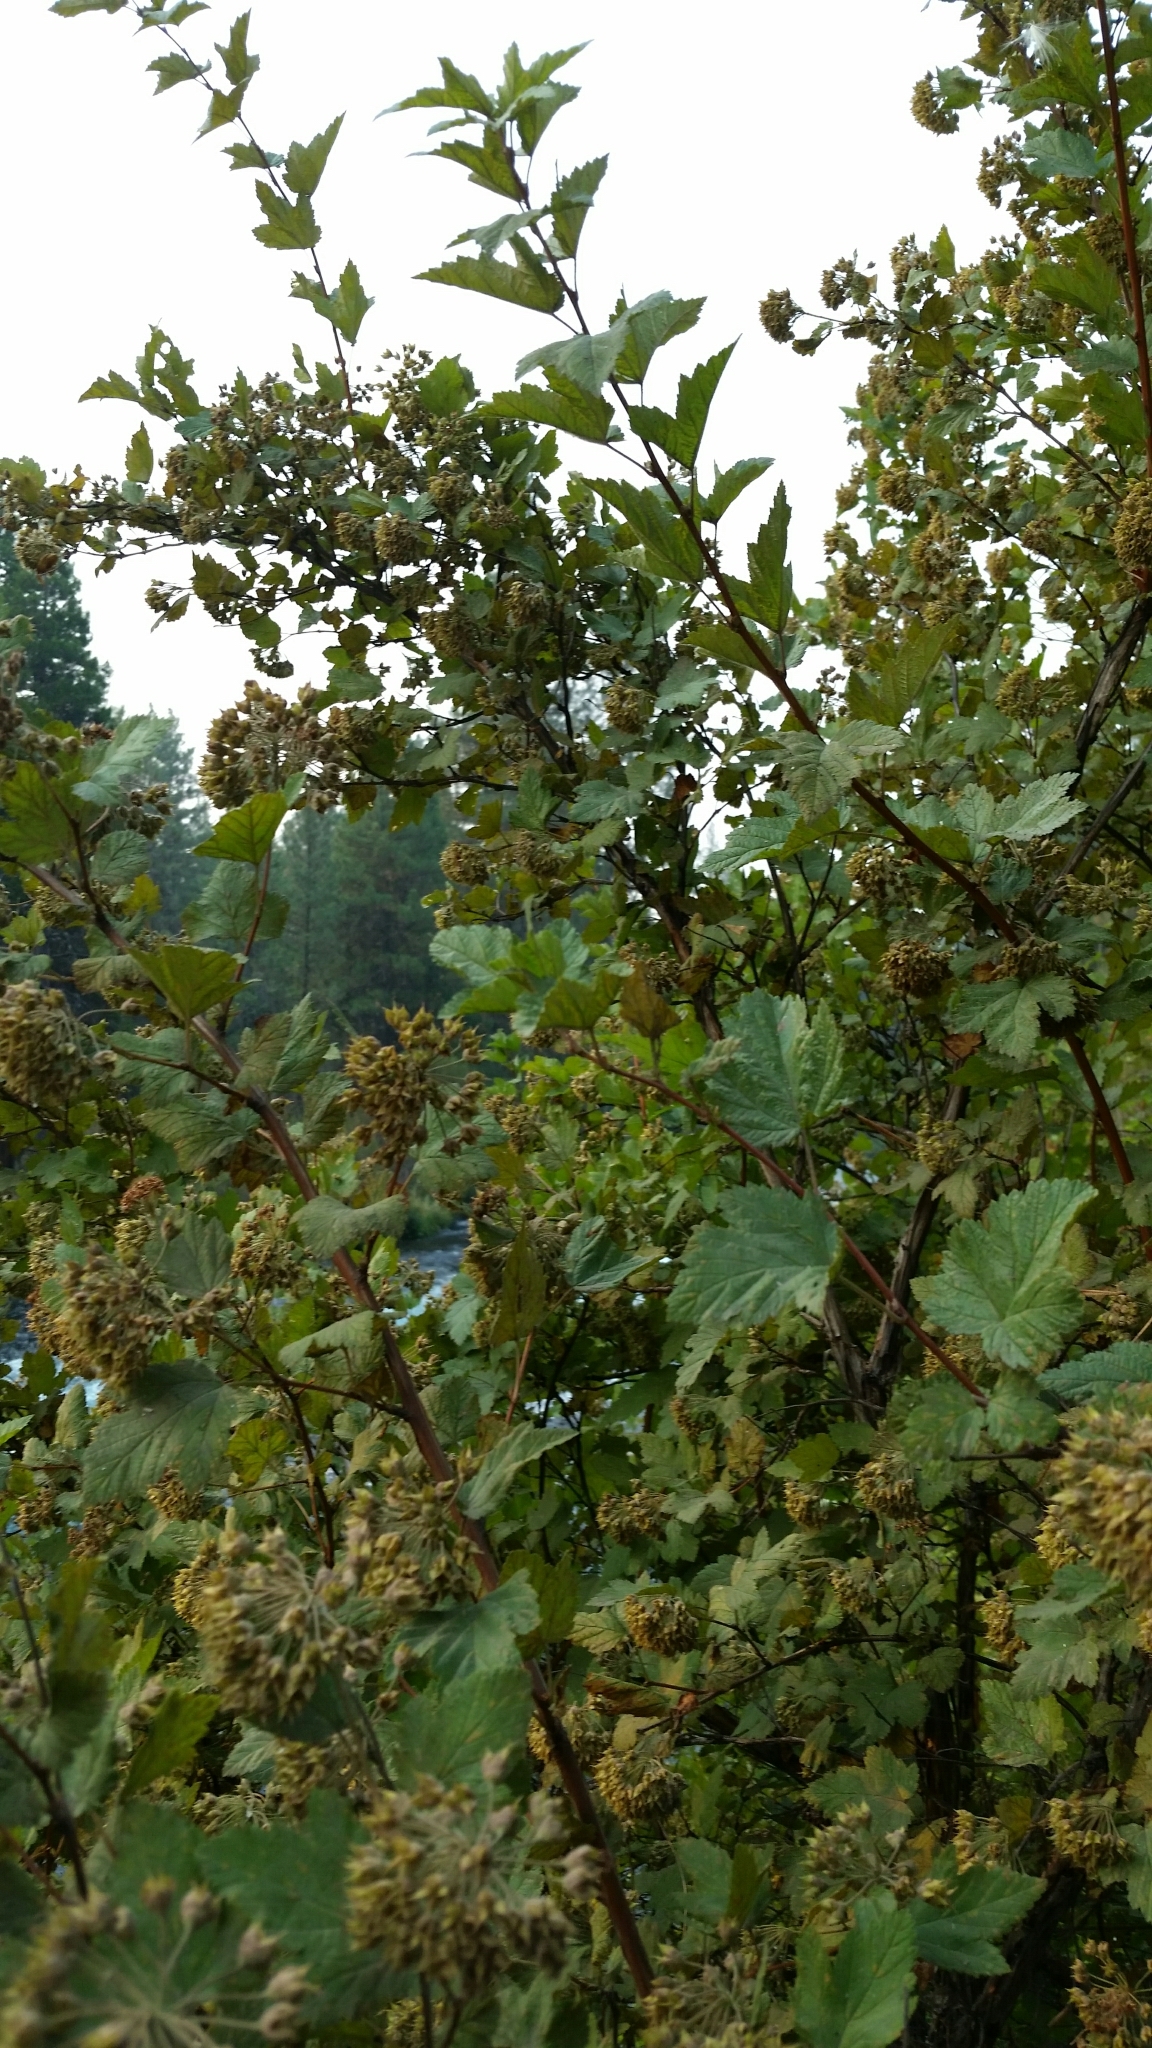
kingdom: Plantae
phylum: Tracheophyta
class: Magnoliopsida
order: Rosales
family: Rosaceae
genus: Physocarpus
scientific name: Physocarpus capitatus
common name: Pacific ninebark
